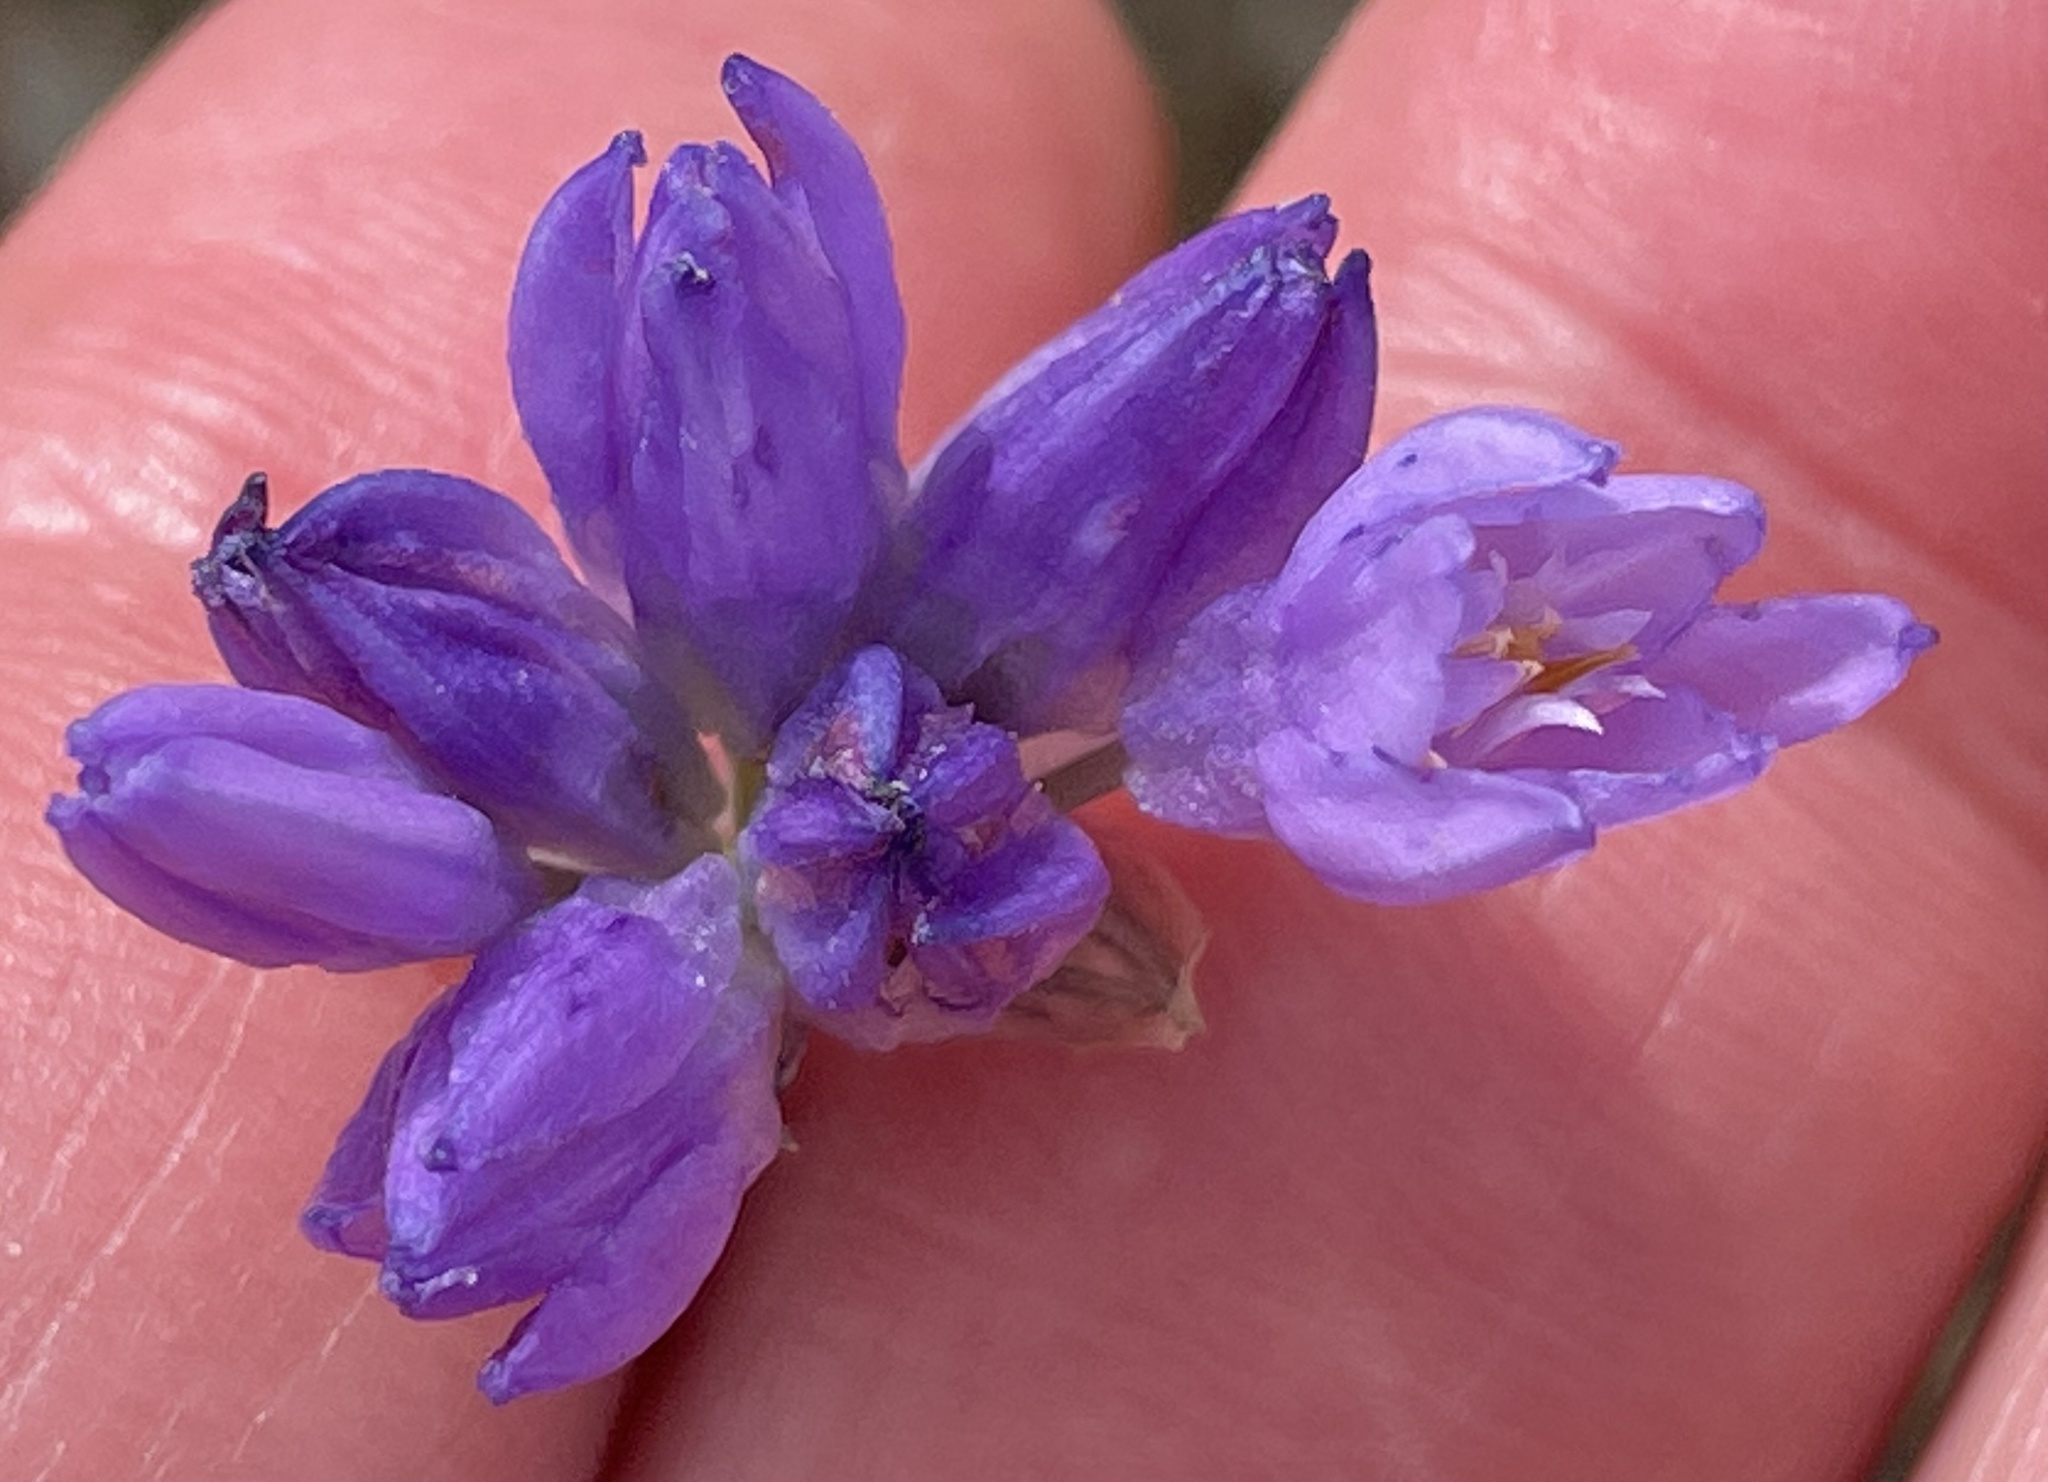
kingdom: Plantae
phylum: Tracheophyta
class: Liliopsida
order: Asparagales
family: Asparagaceae
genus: Dipterostemon
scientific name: Dipterostemon capitatus
